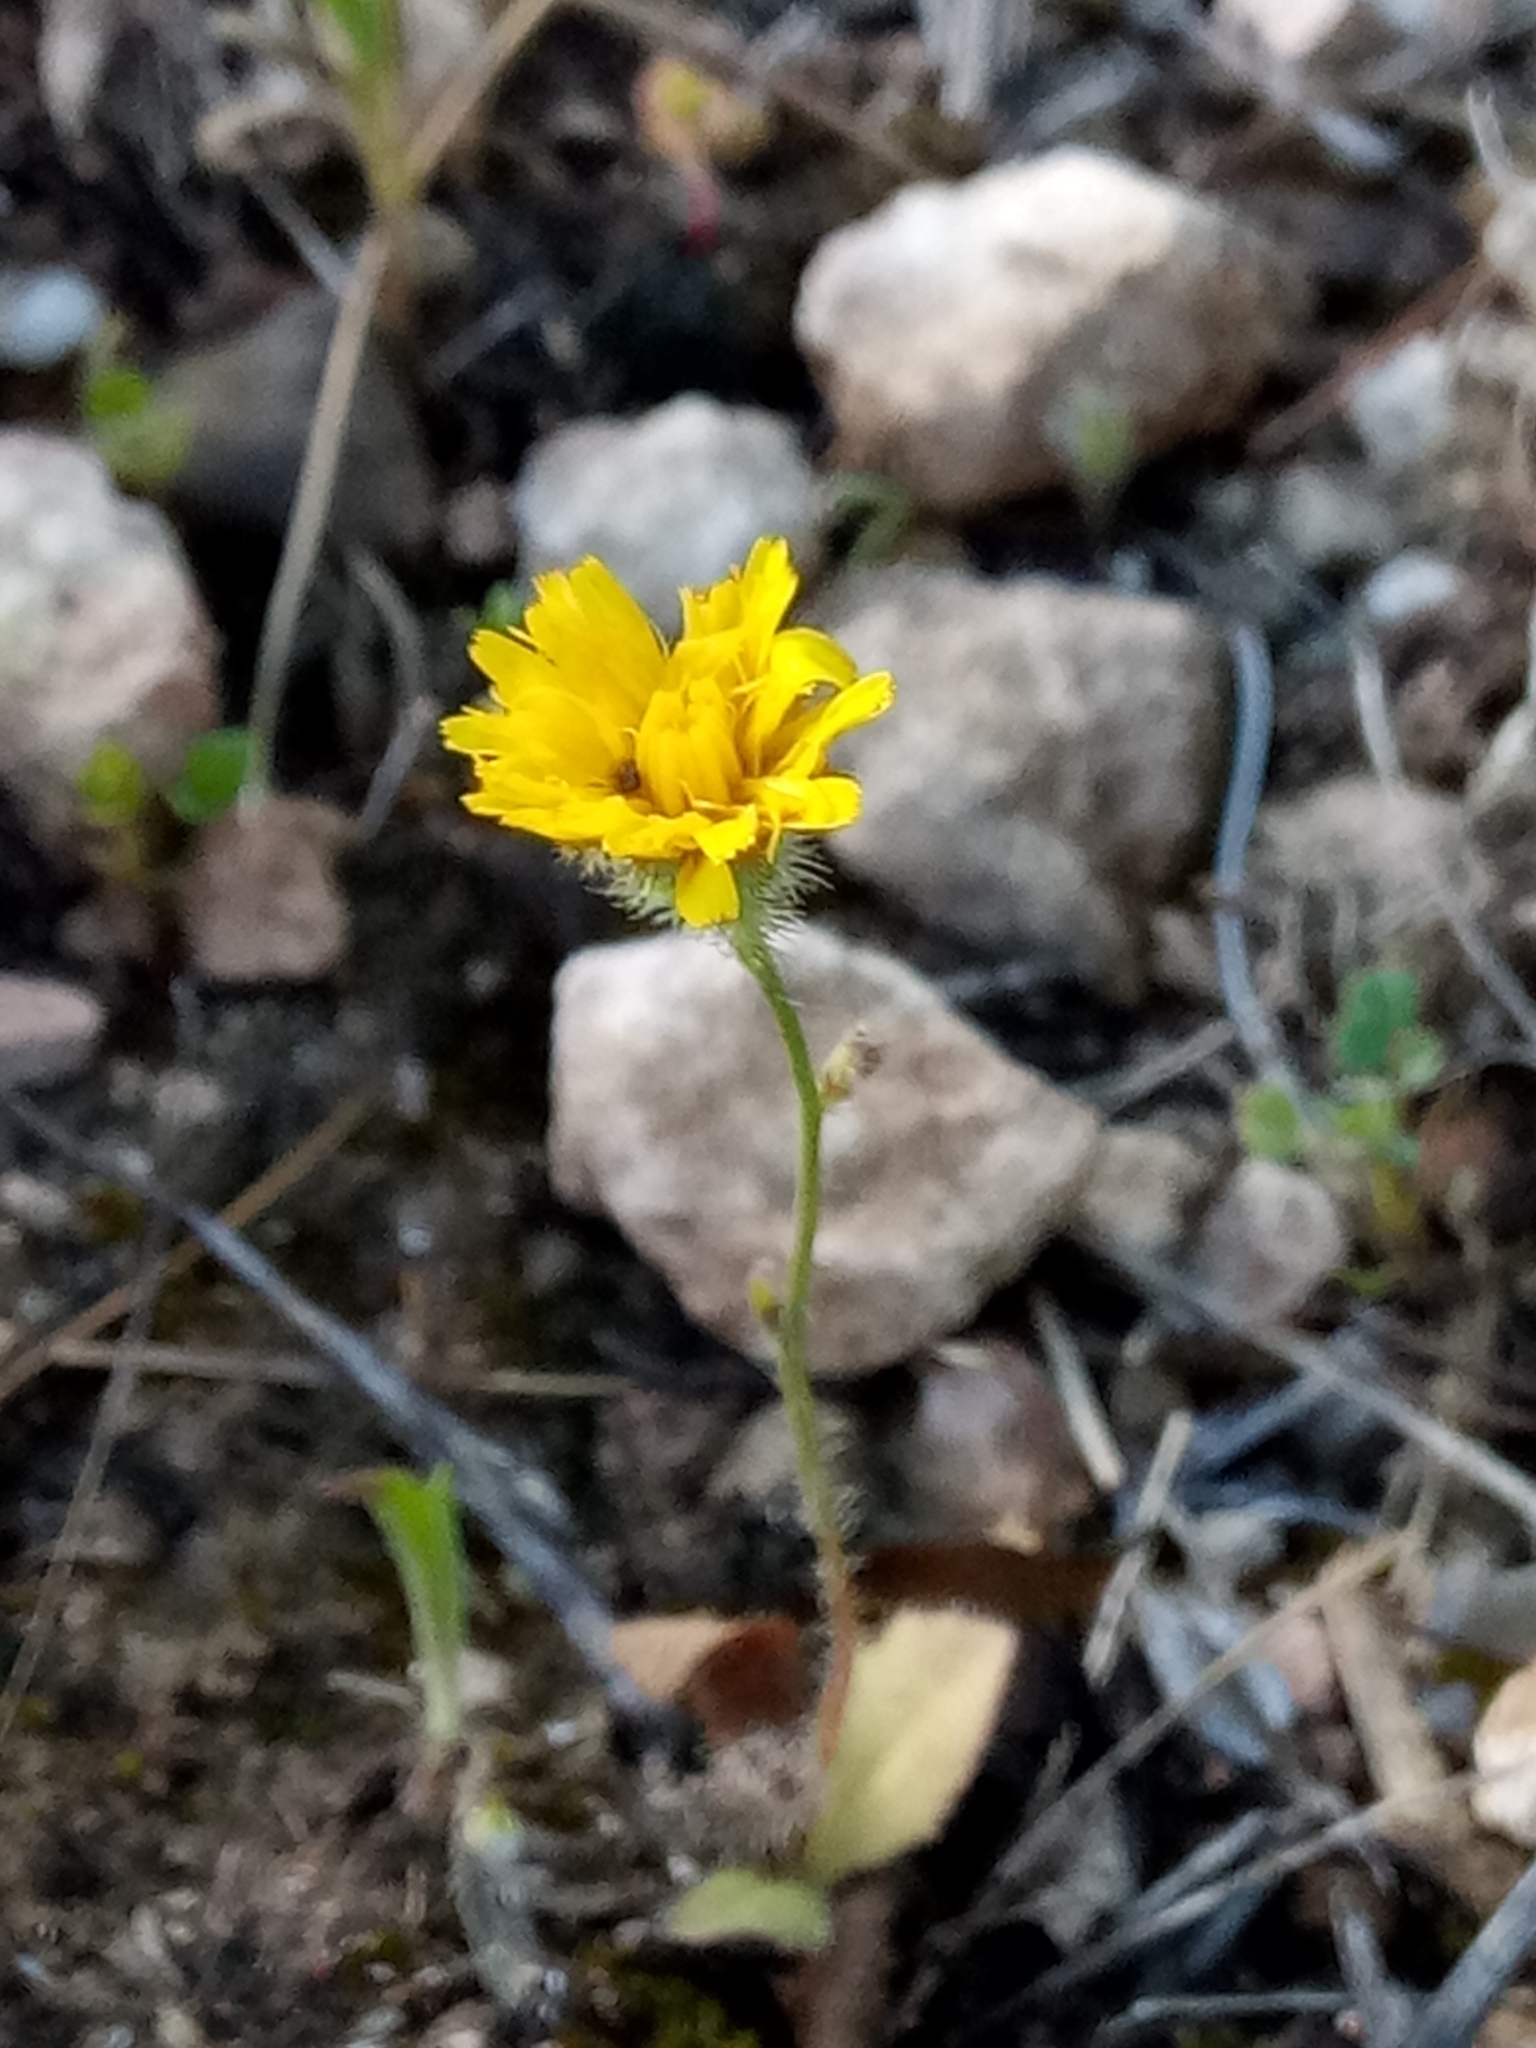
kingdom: Plantae
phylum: Tracheophyta
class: Magnoliopsida
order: Asterales
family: Asteraceae
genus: Achyrophorus
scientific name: Achyrophorus valdesii
